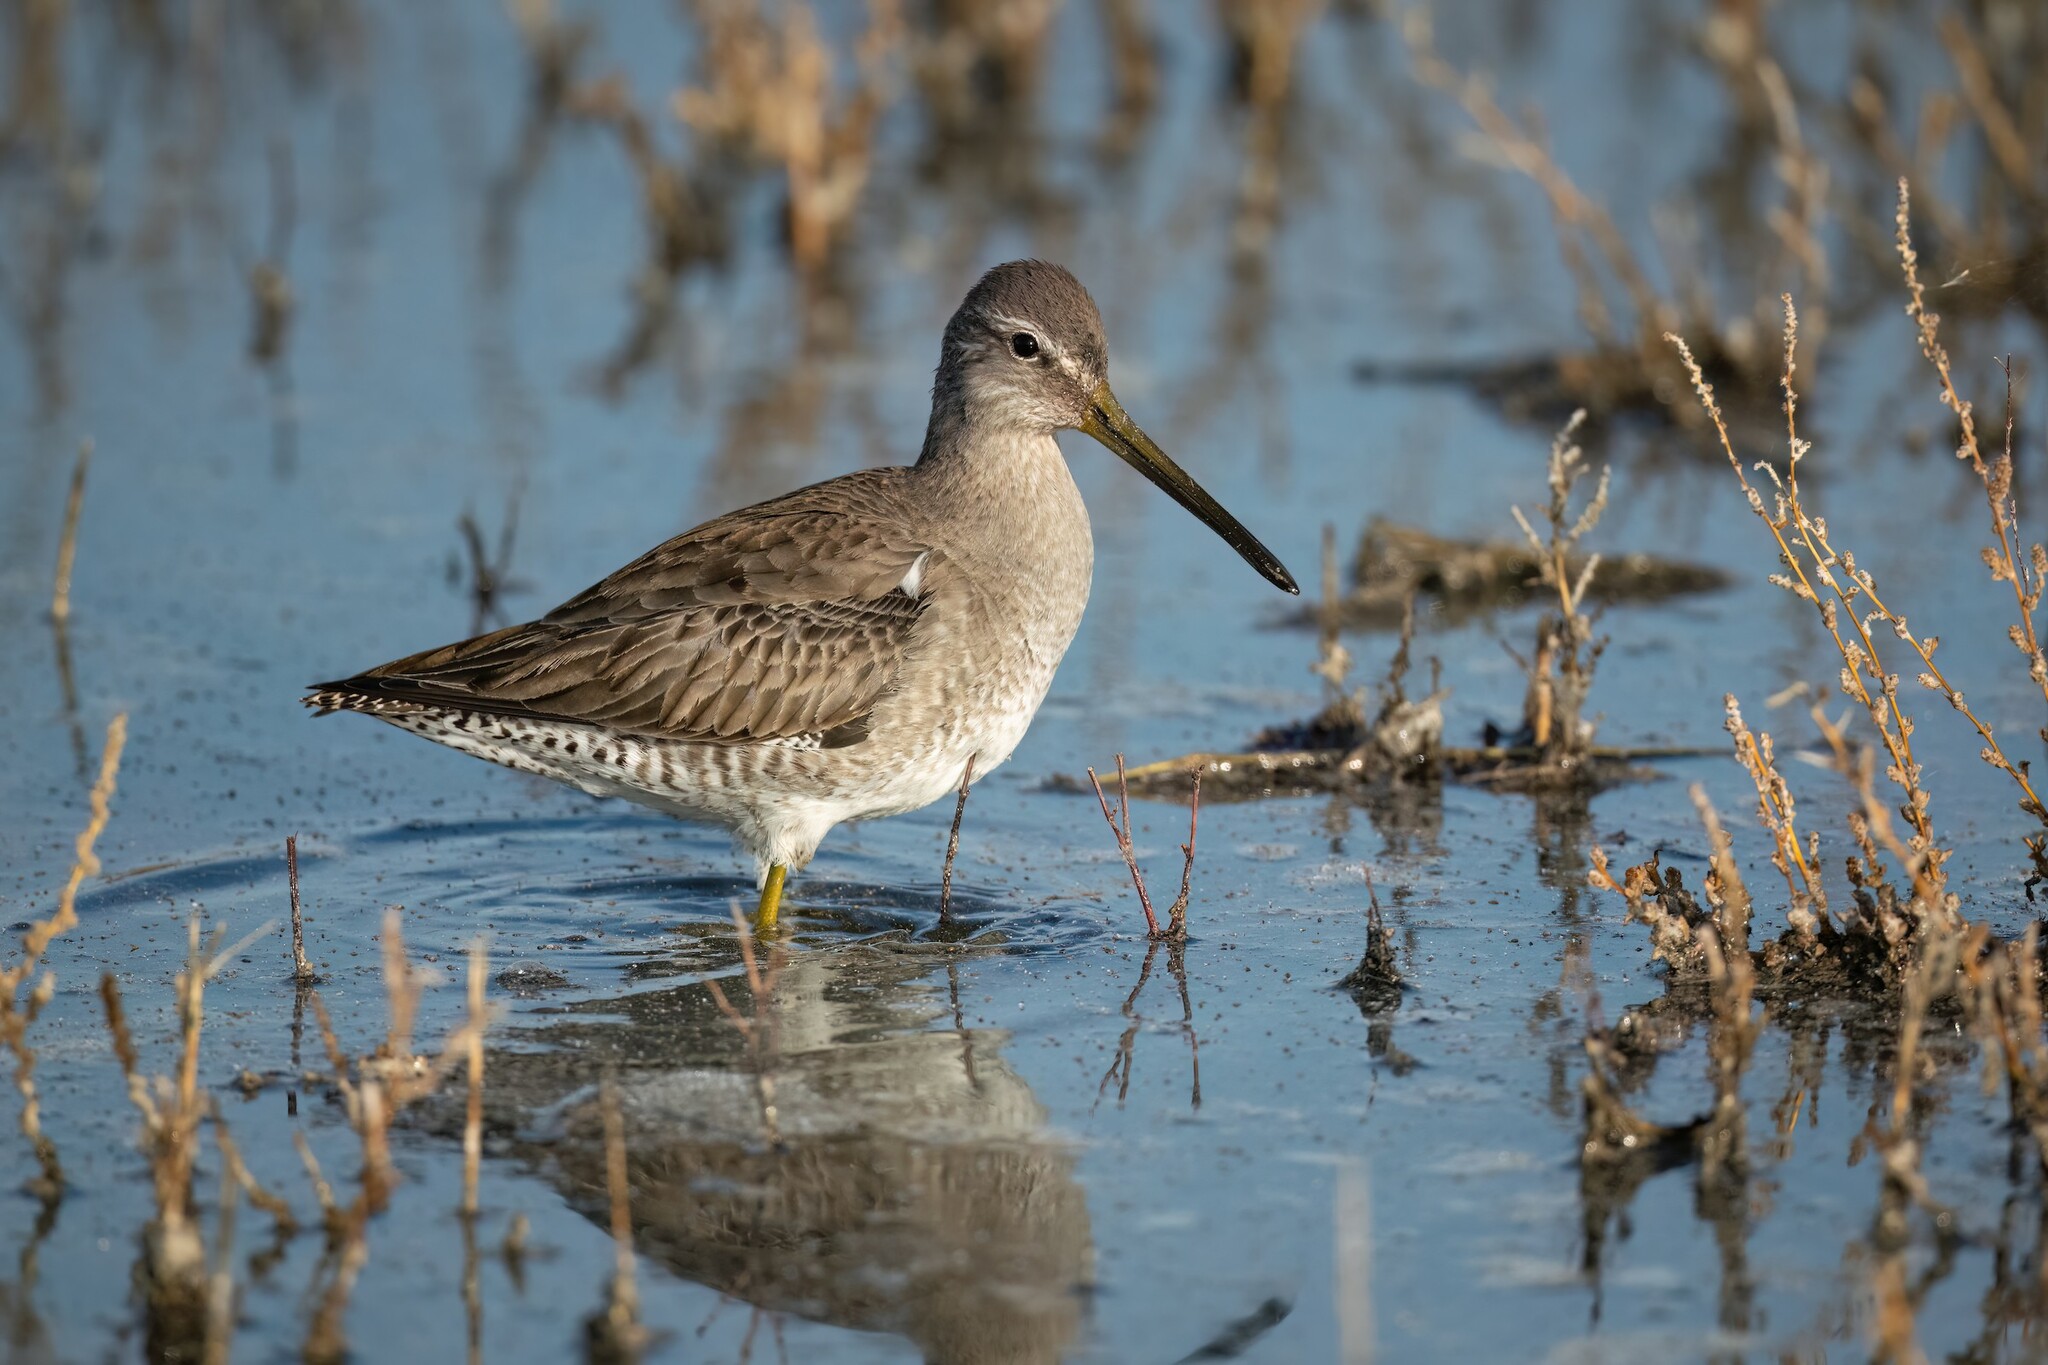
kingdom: Animalia
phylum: Chordata
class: Aves
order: Charadriiformes
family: Scolopacidae
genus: Limnodromus
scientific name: Limnodromus scolopaceus
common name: Long-billed dowitcher
